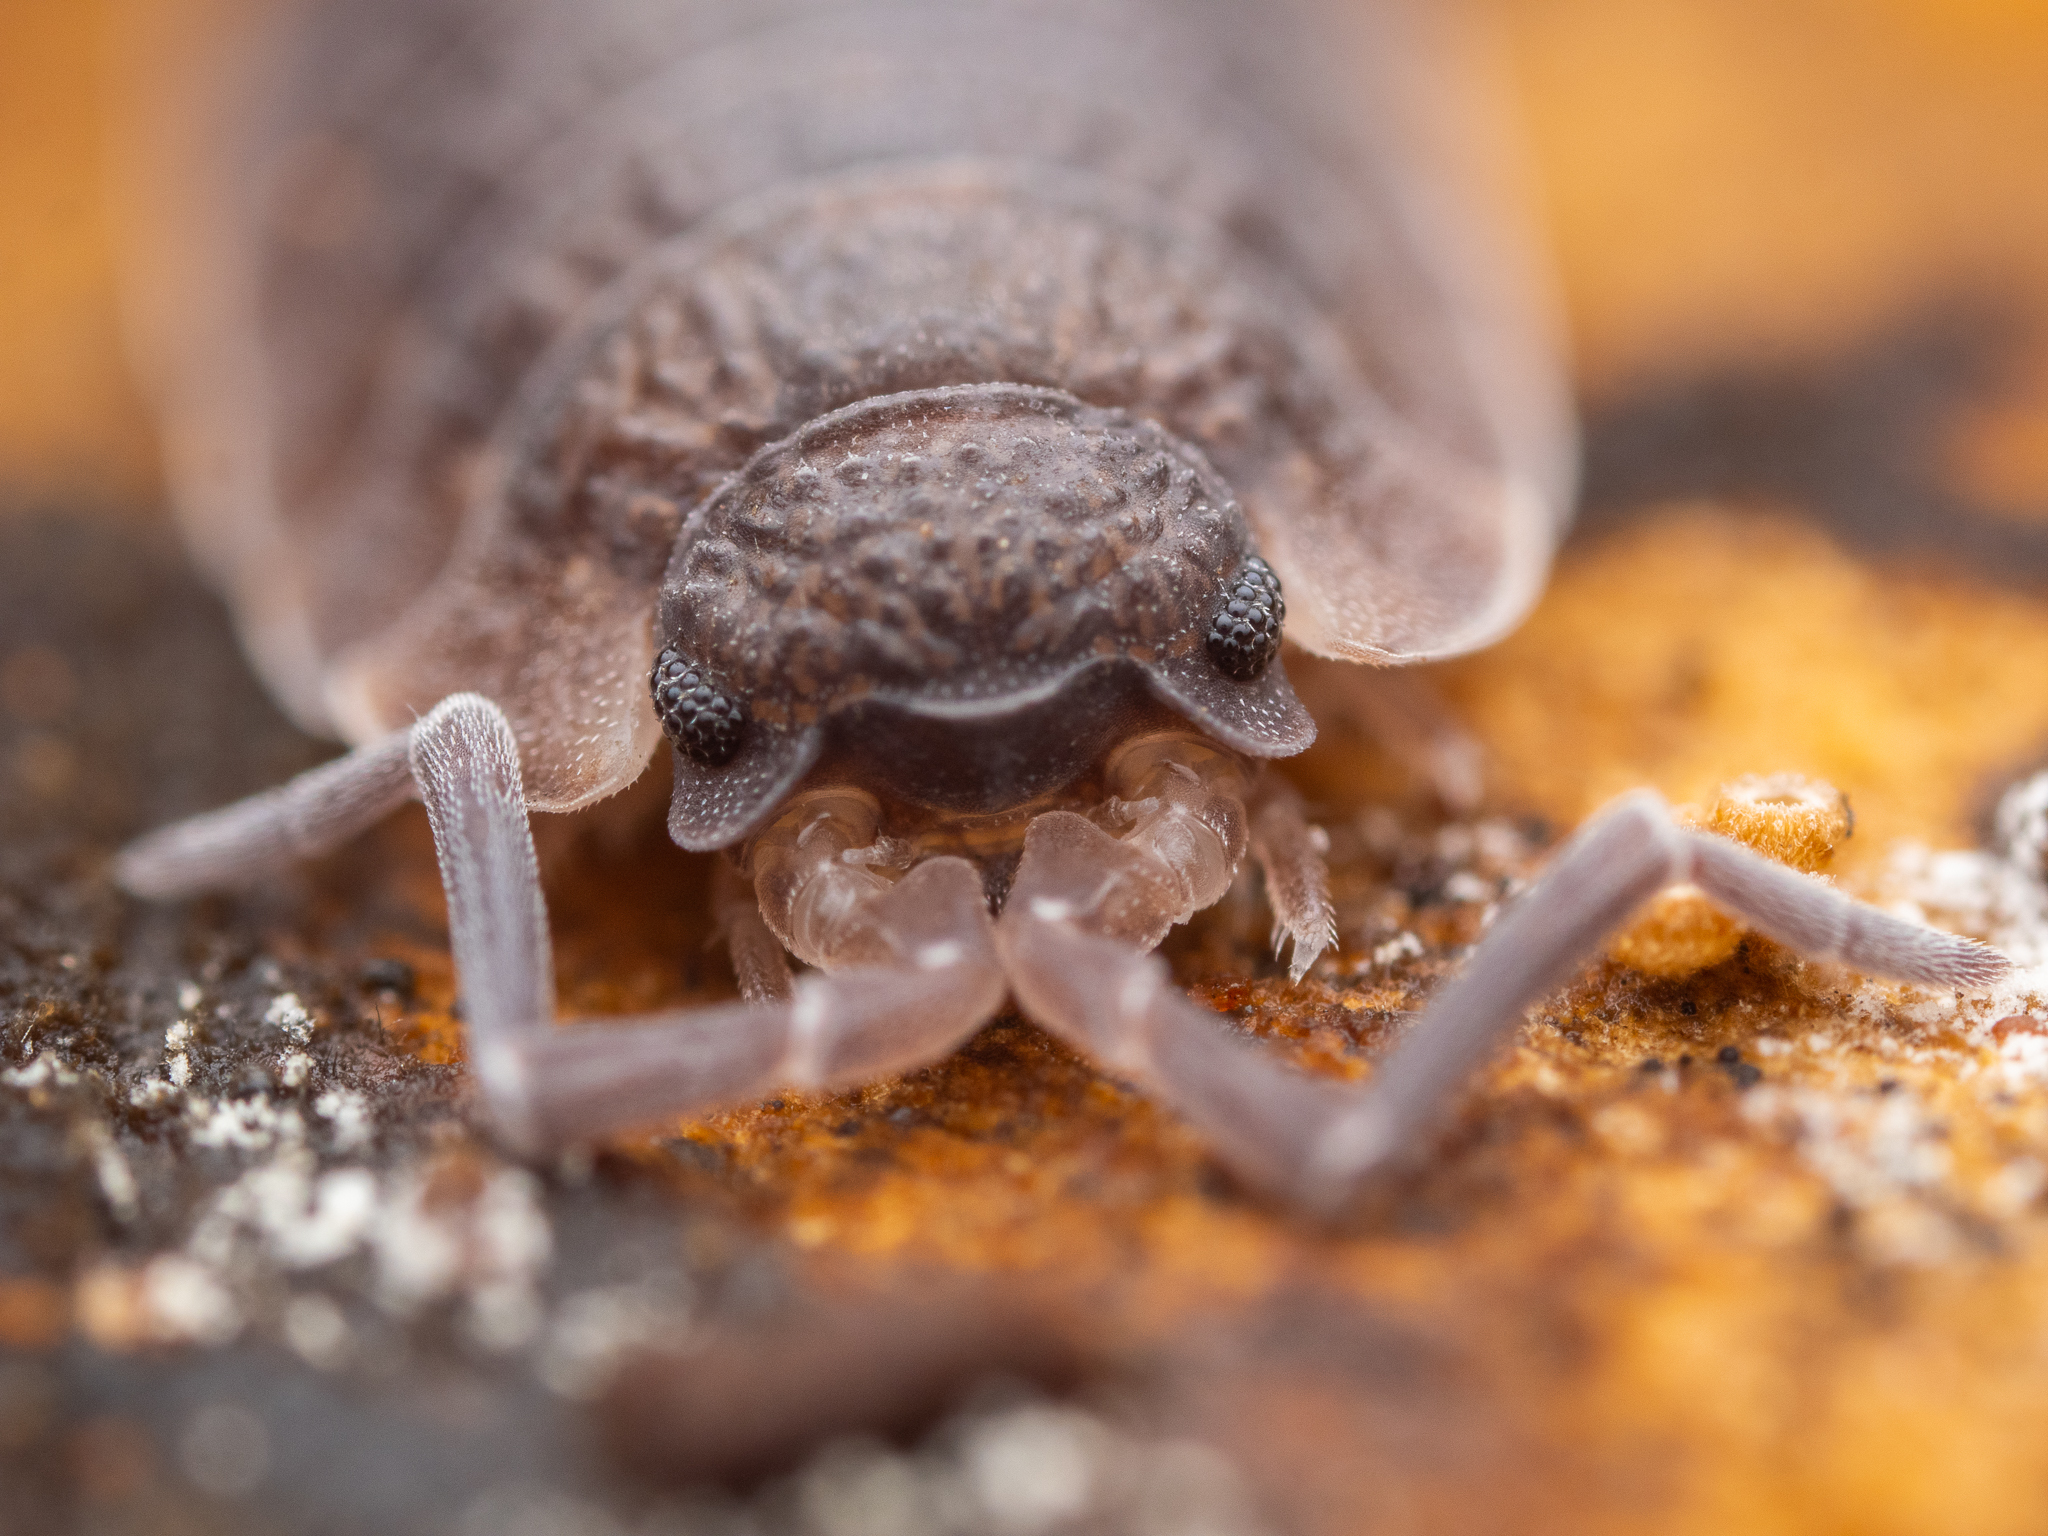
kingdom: Animalia
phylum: Arthropoda
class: Malacostraca
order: Isopoda
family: Porcellionidae
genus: Porcellio
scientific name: Porcellio scaber
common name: Common rough woodlouse
